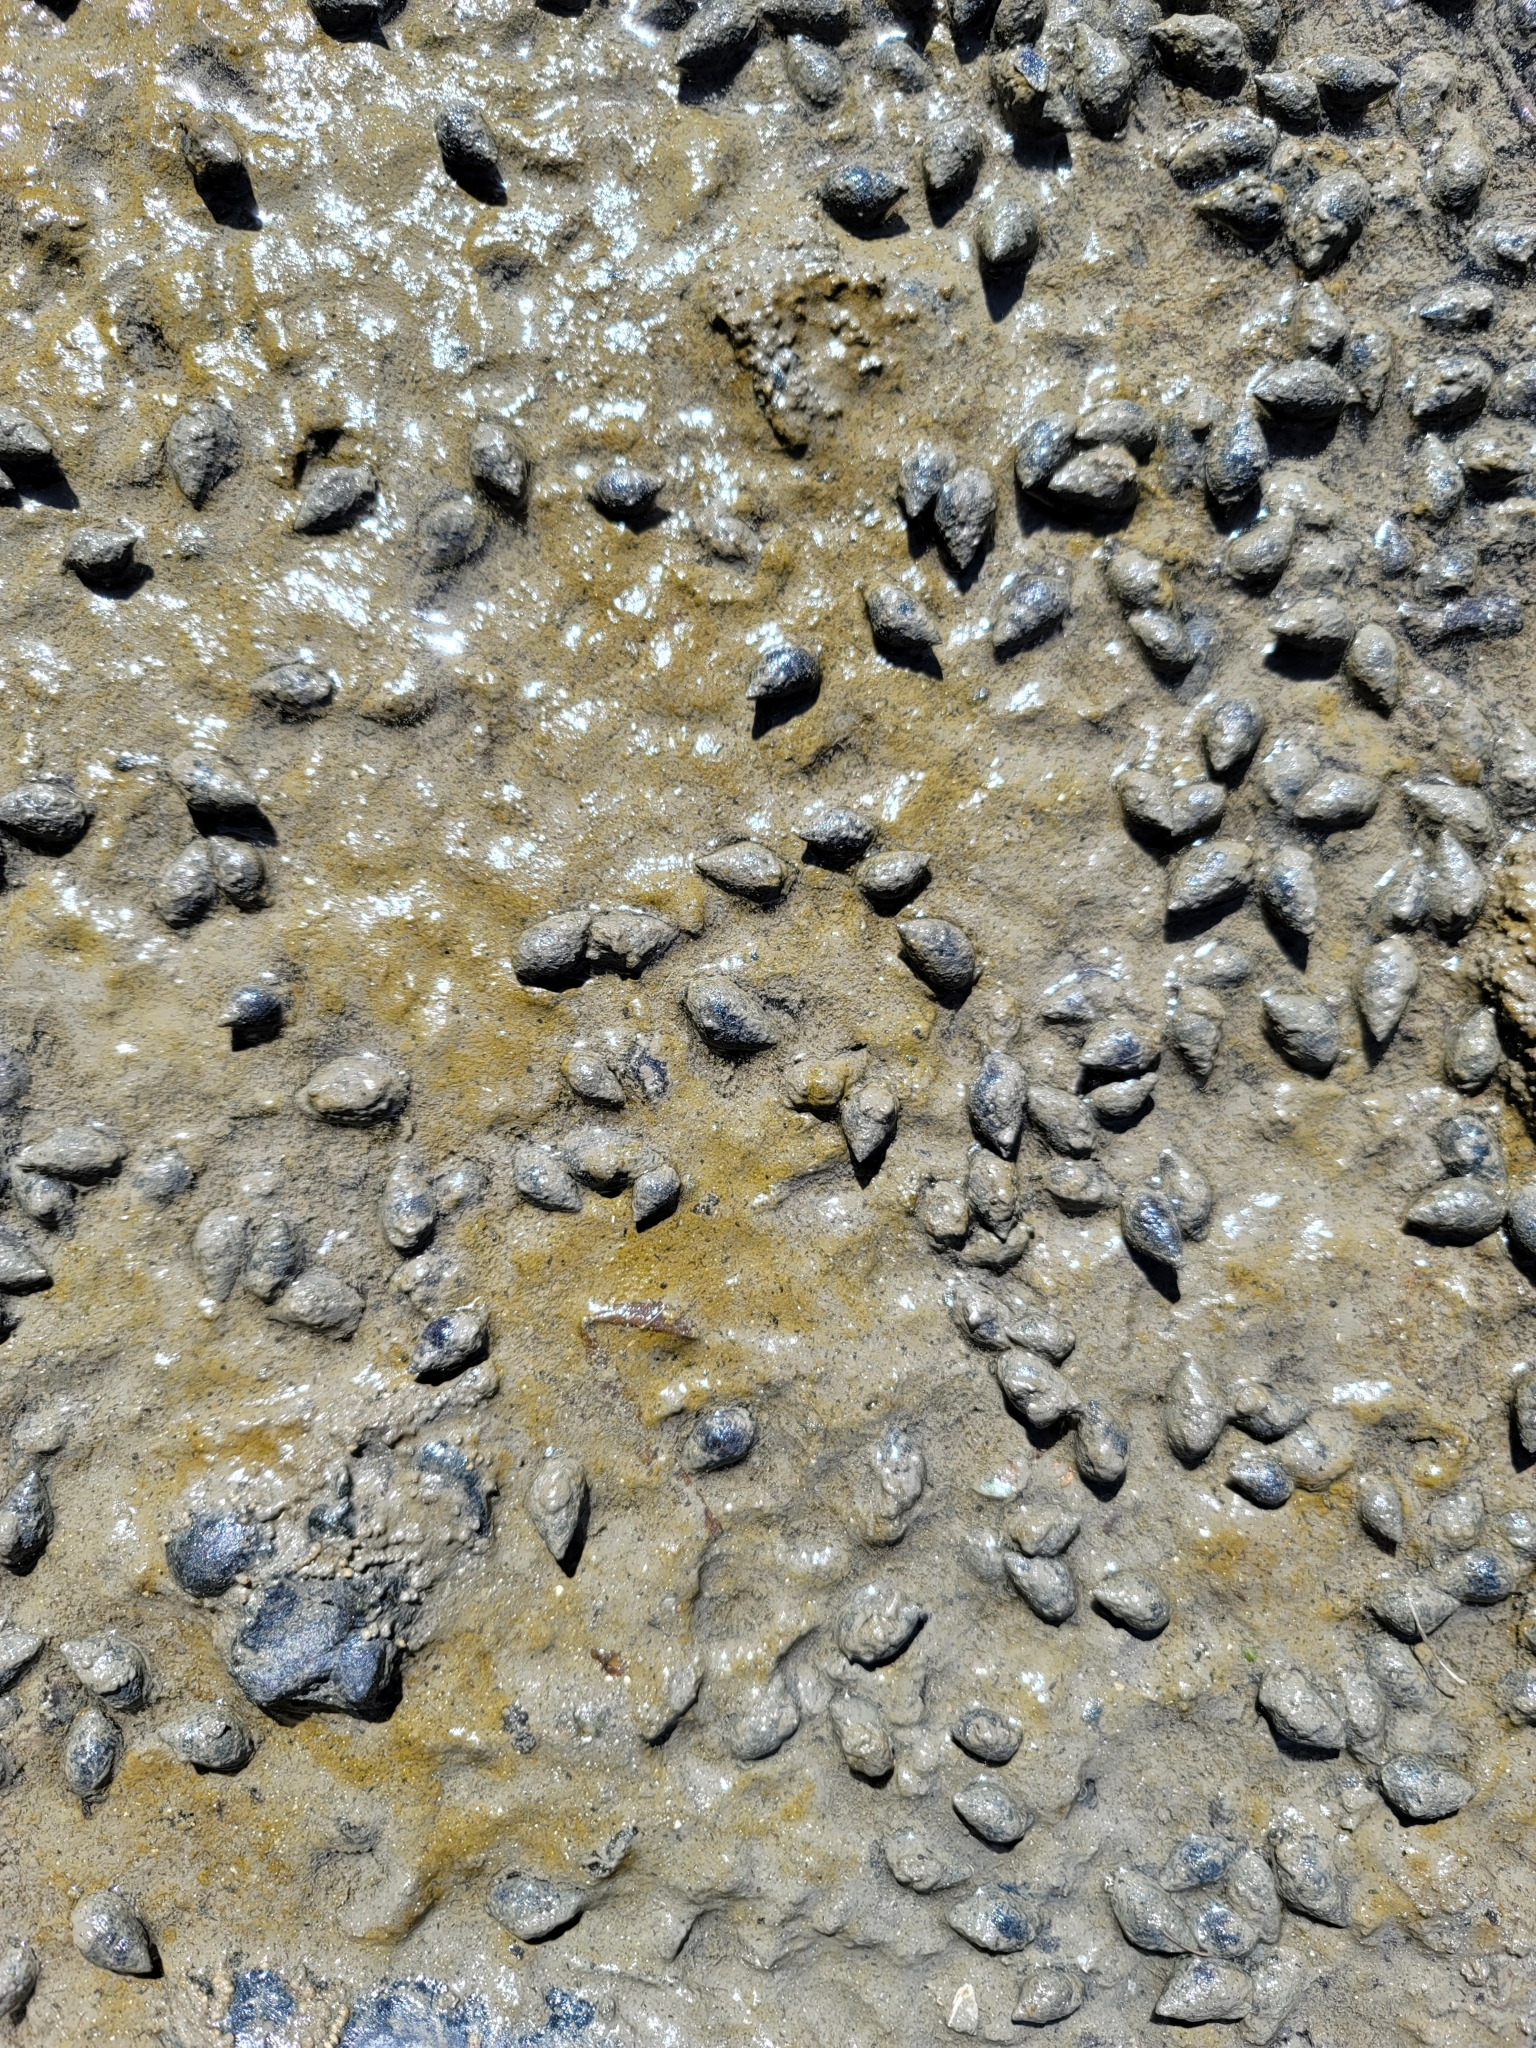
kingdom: Animalia
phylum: Mollusca
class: Gastropoda
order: Neogastropoda
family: Nassariidae
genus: Ilyanassa
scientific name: Ilyanassa obsoleta
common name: Eastern mudsnail
